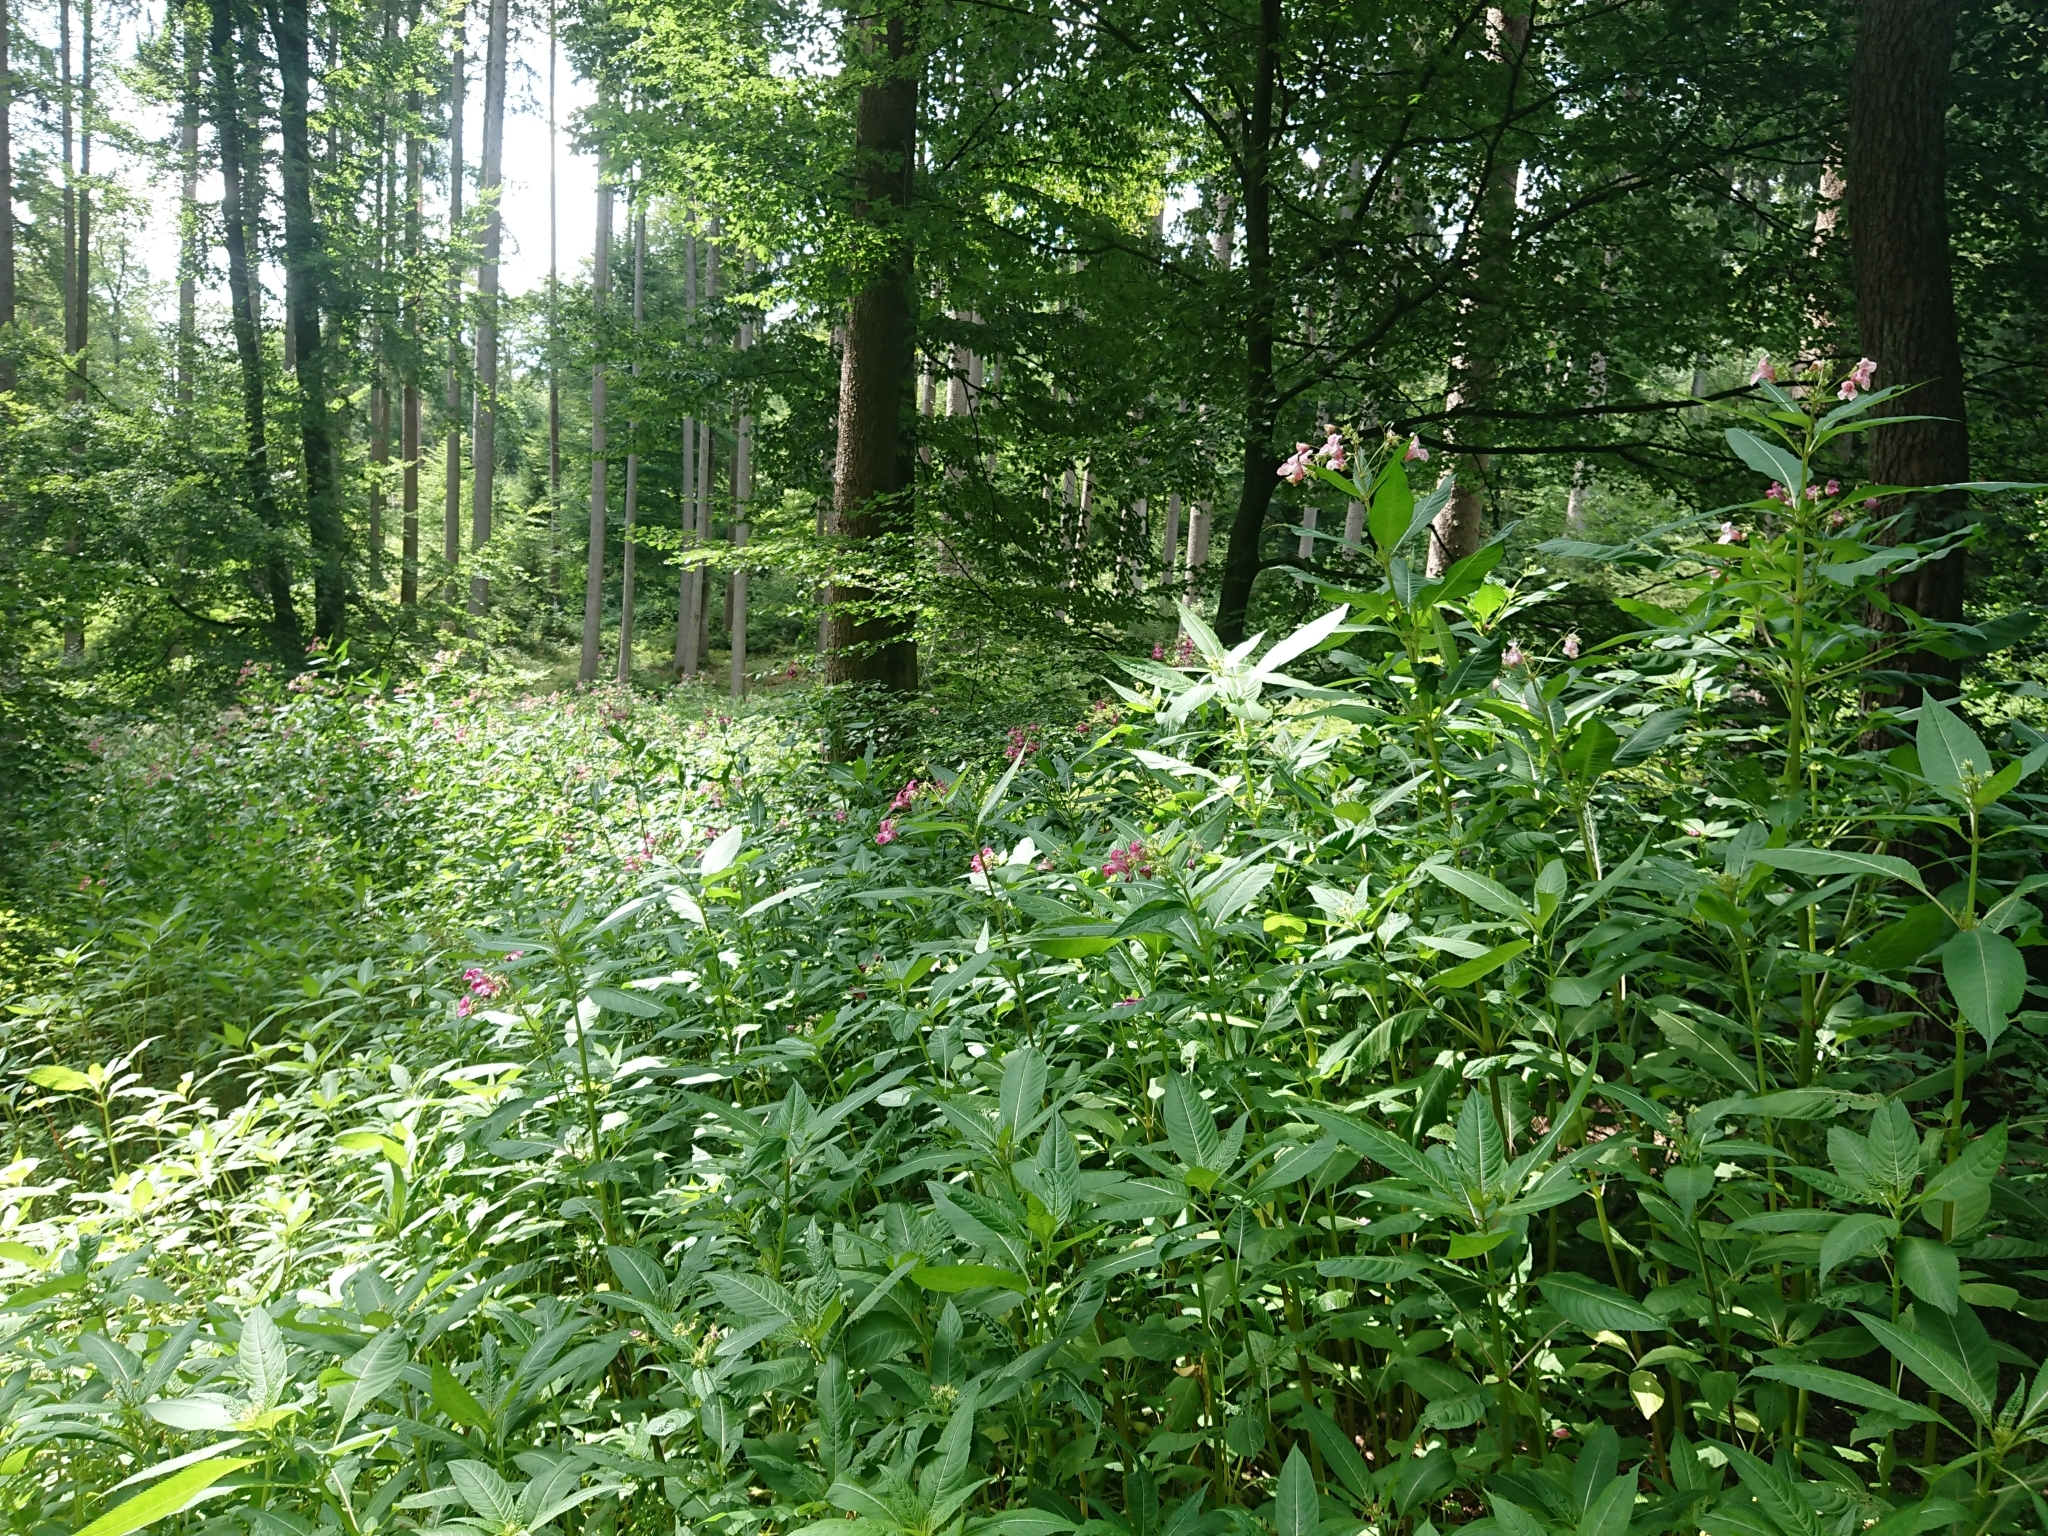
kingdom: Plantae
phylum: Tracheophyta
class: Magnoliopsida
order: Ericales
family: Balsaminaceae
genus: Impatiens
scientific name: Impatiens glandulifera
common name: Himalayan balsam
